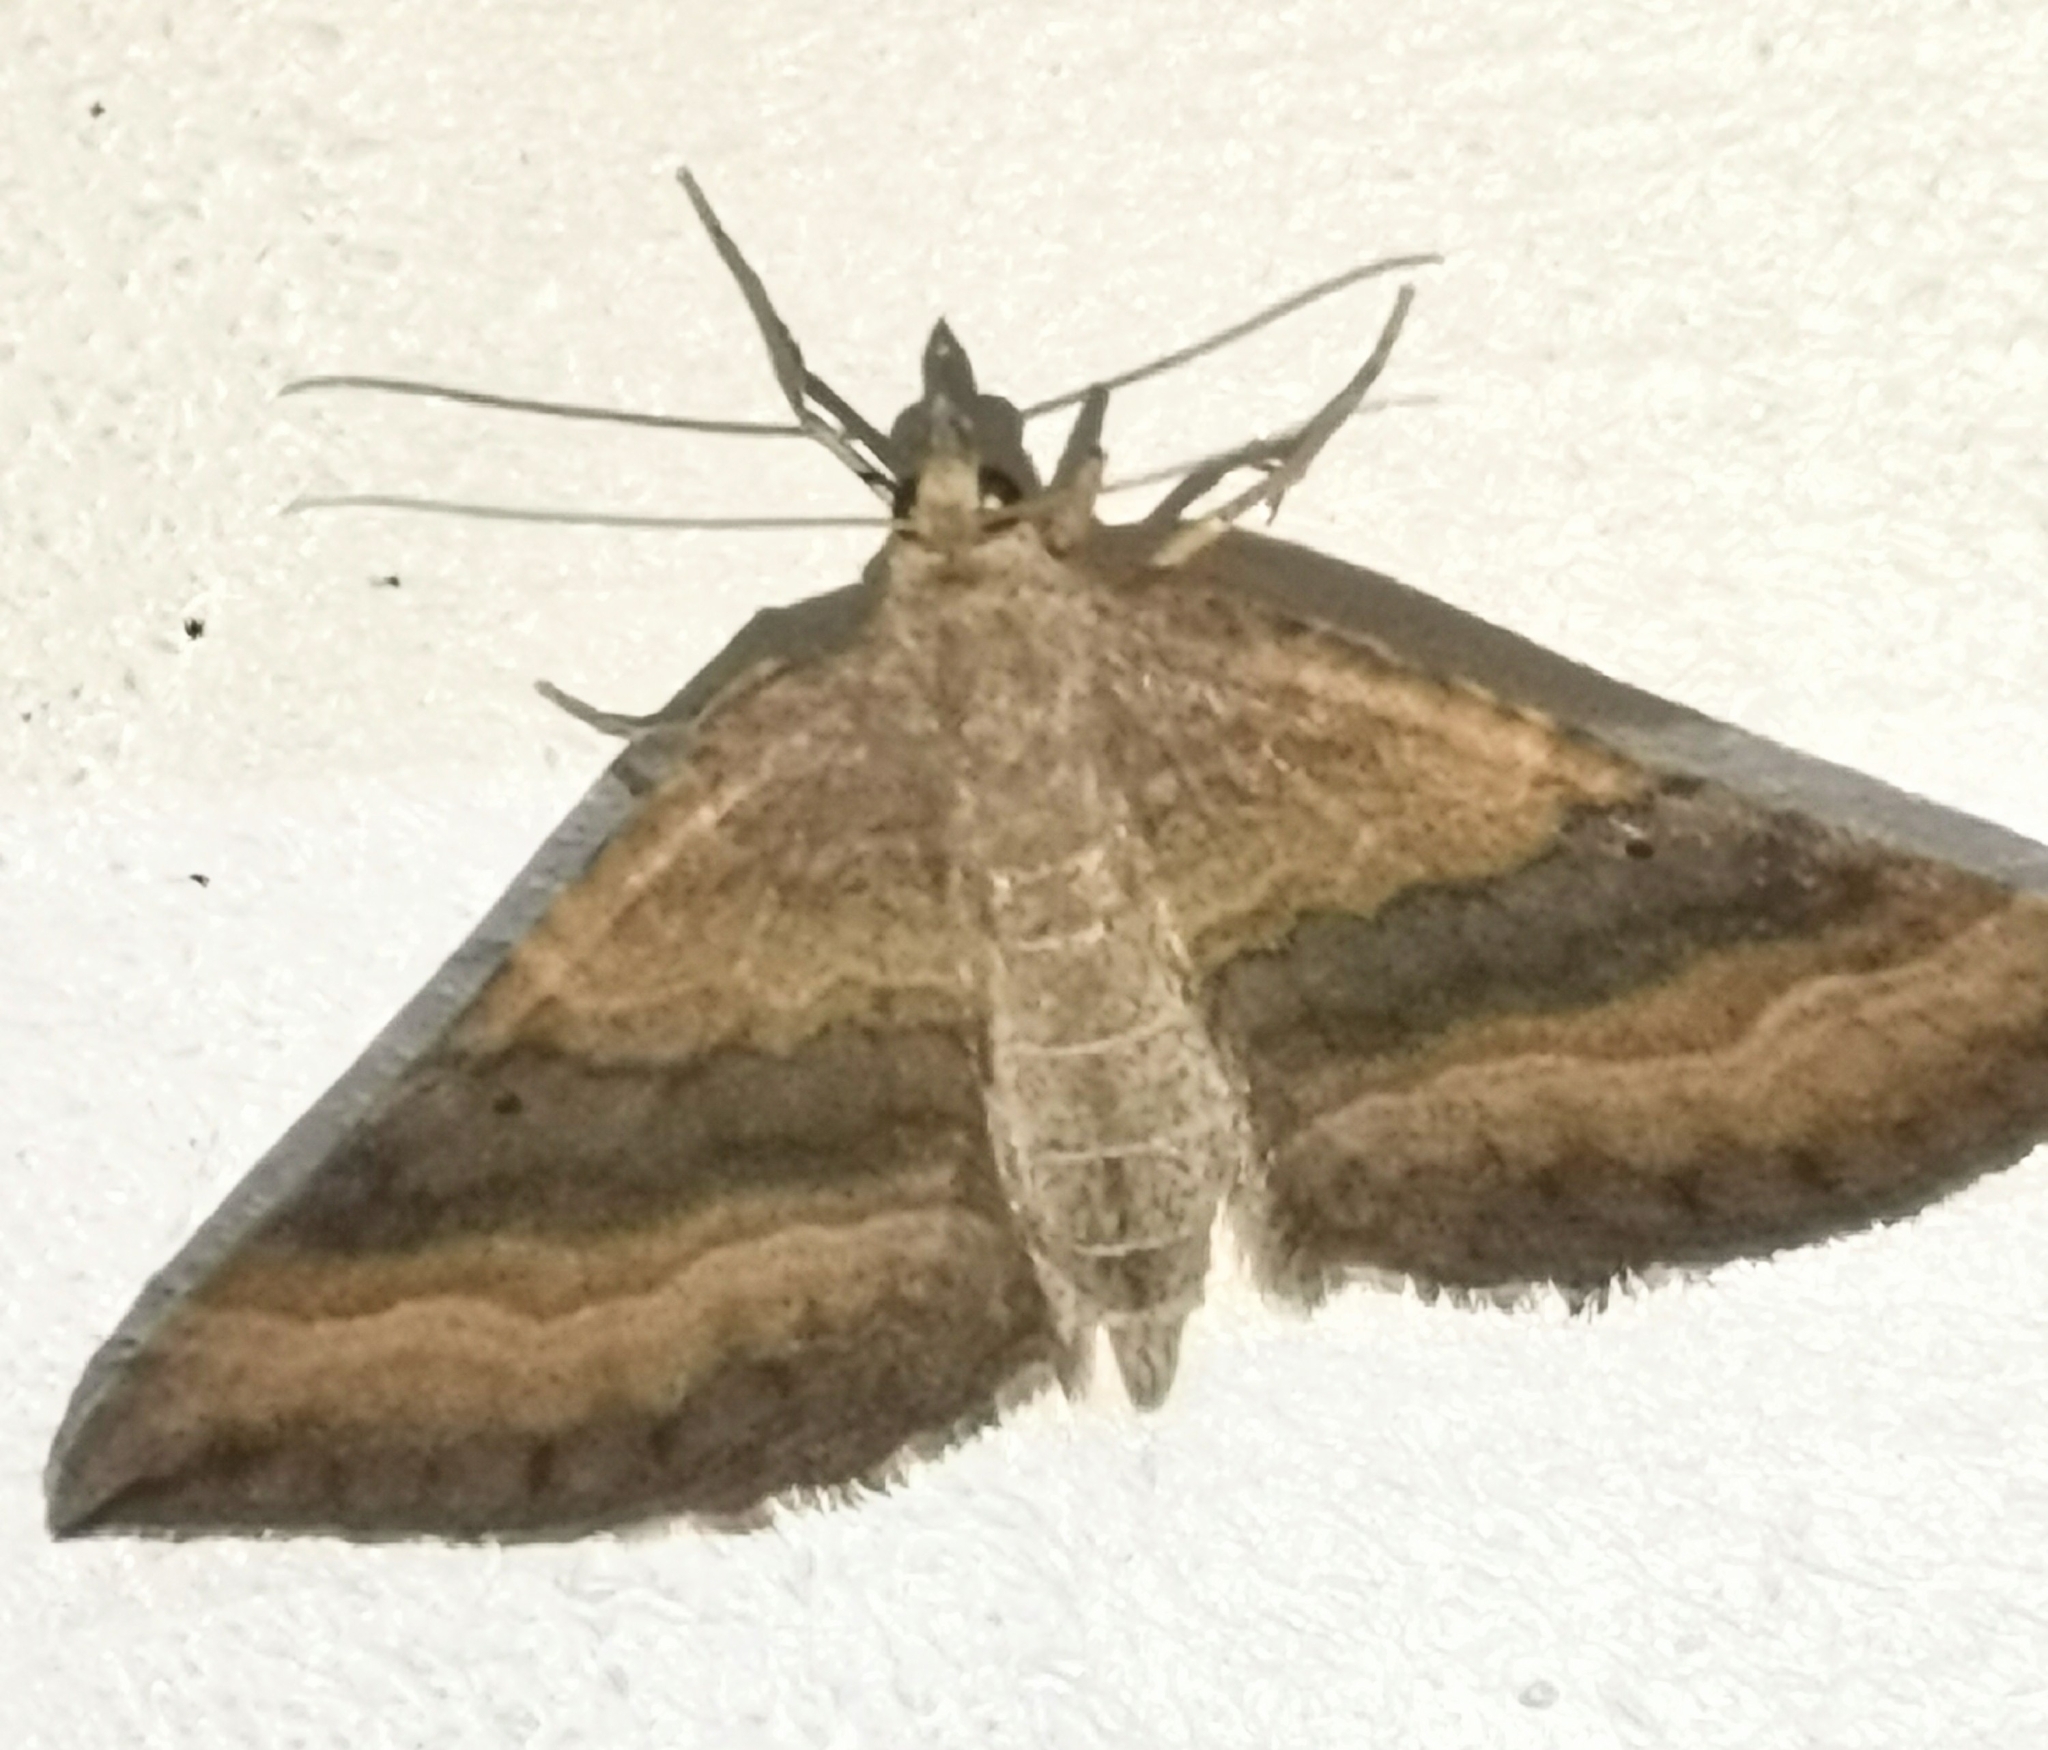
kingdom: Animalia
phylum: Arthropoda
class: Insecta
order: Lepidoptera
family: Geometridae
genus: Scotopteryx
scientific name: Scotopteryx chenopodiata
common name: Shaded broad-bar
